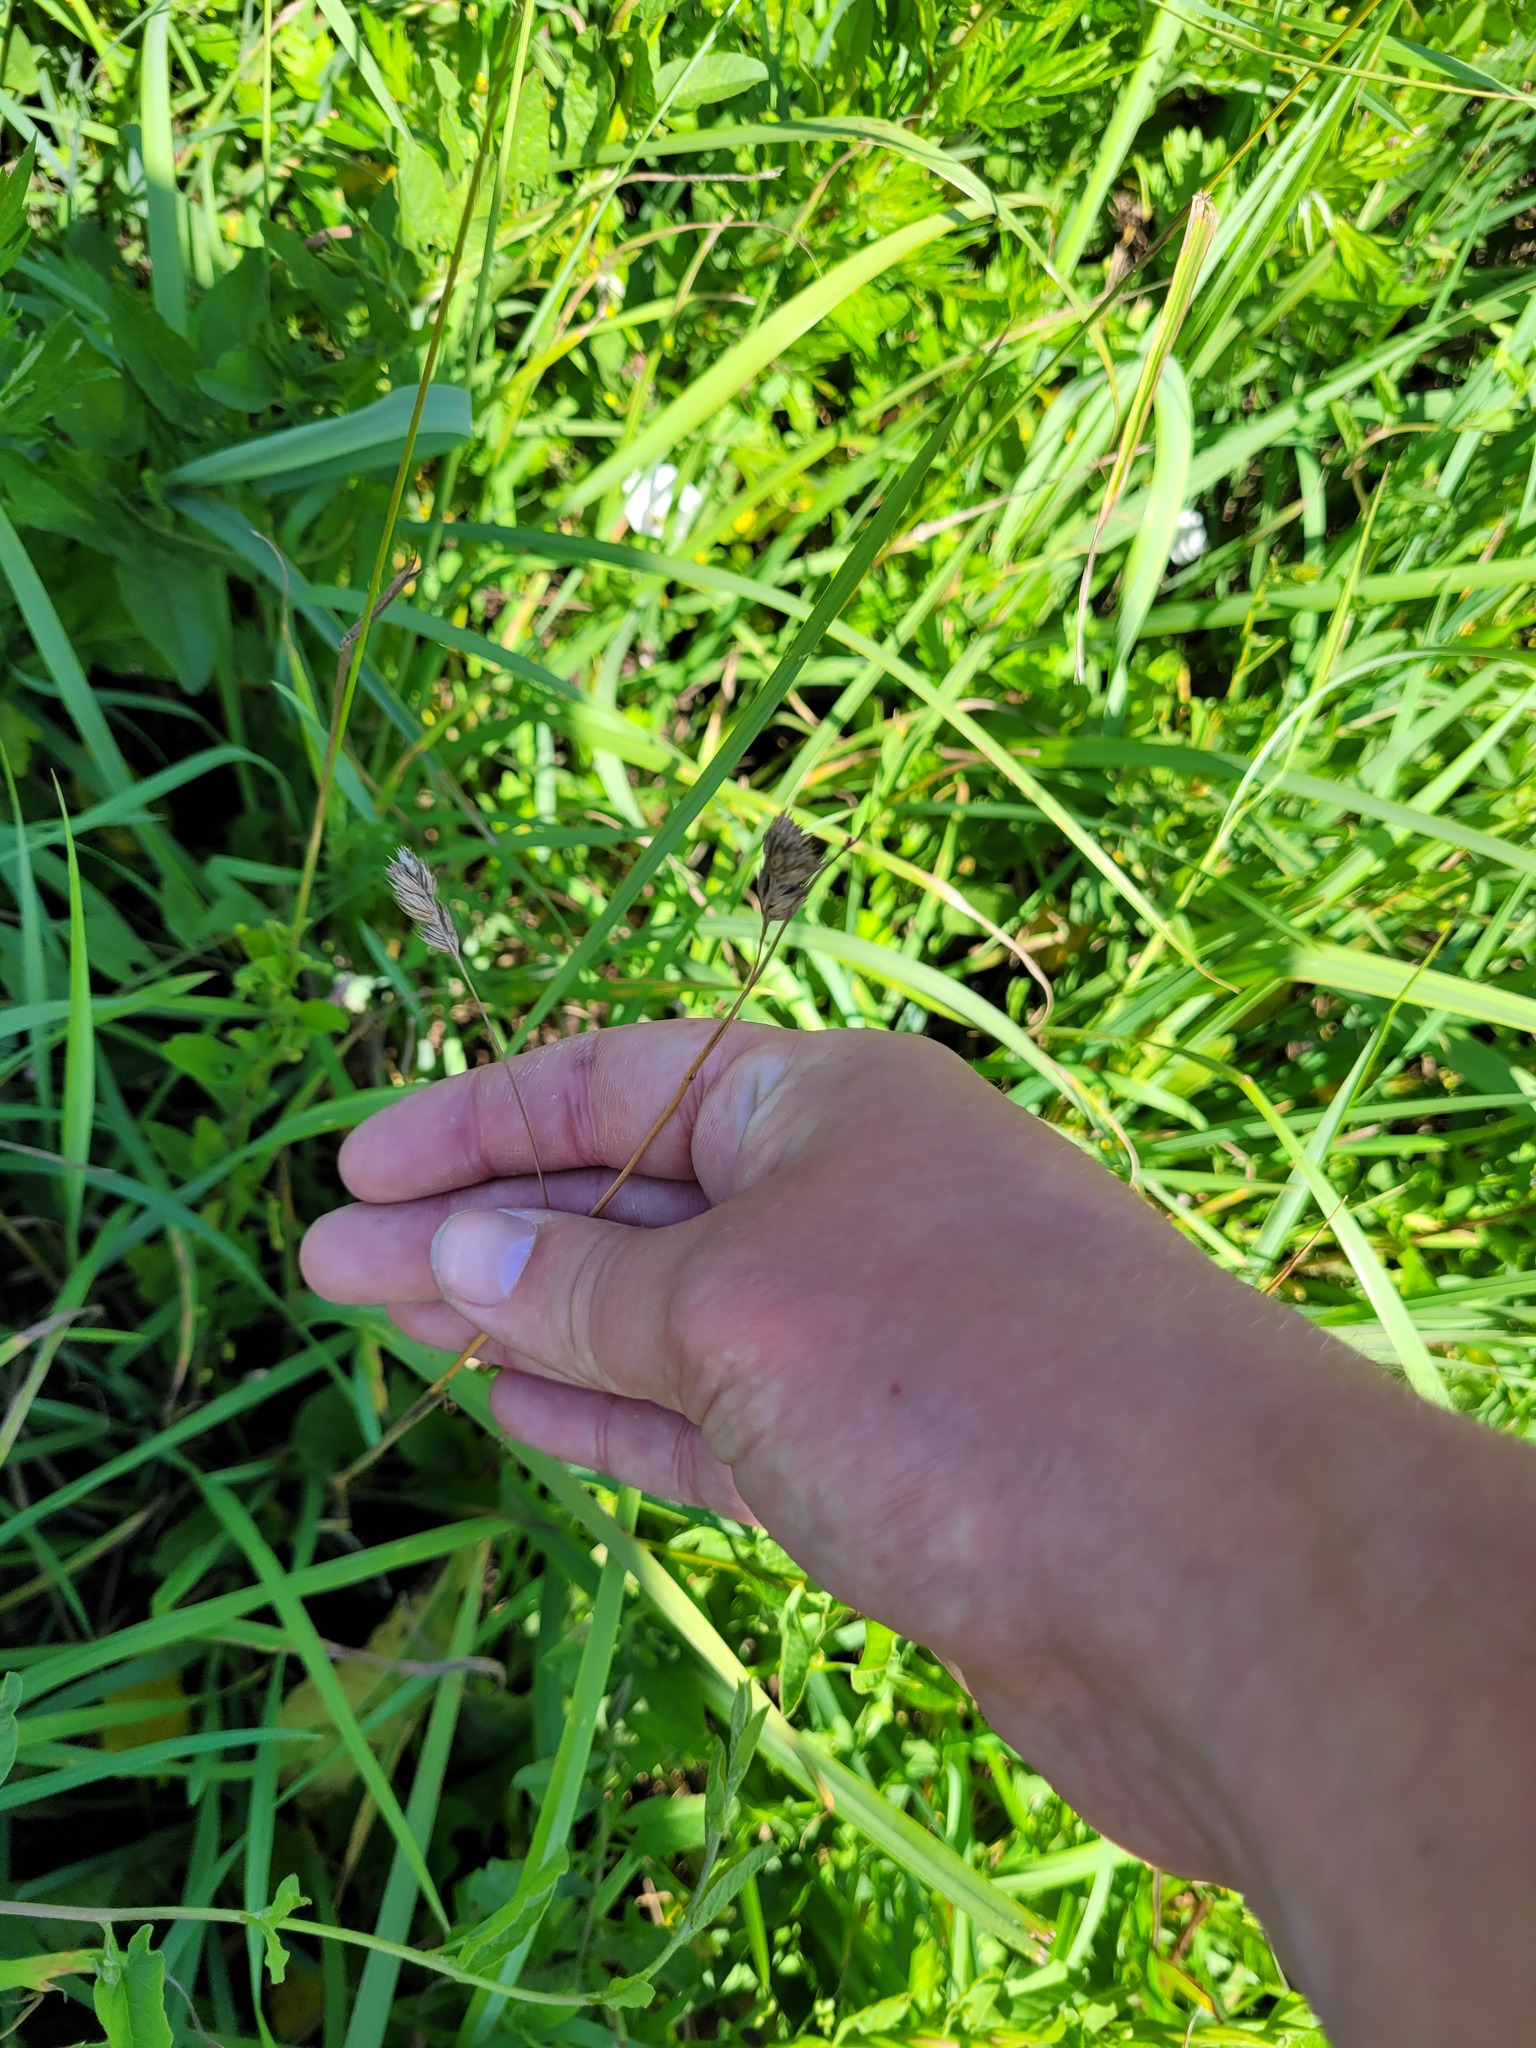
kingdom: Plantae
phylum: Tracheophyta
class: Liliopsida
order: Poales
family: Poaceae
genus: Dactylis
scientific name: Dactylis glomerata
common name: Orchardgrass
